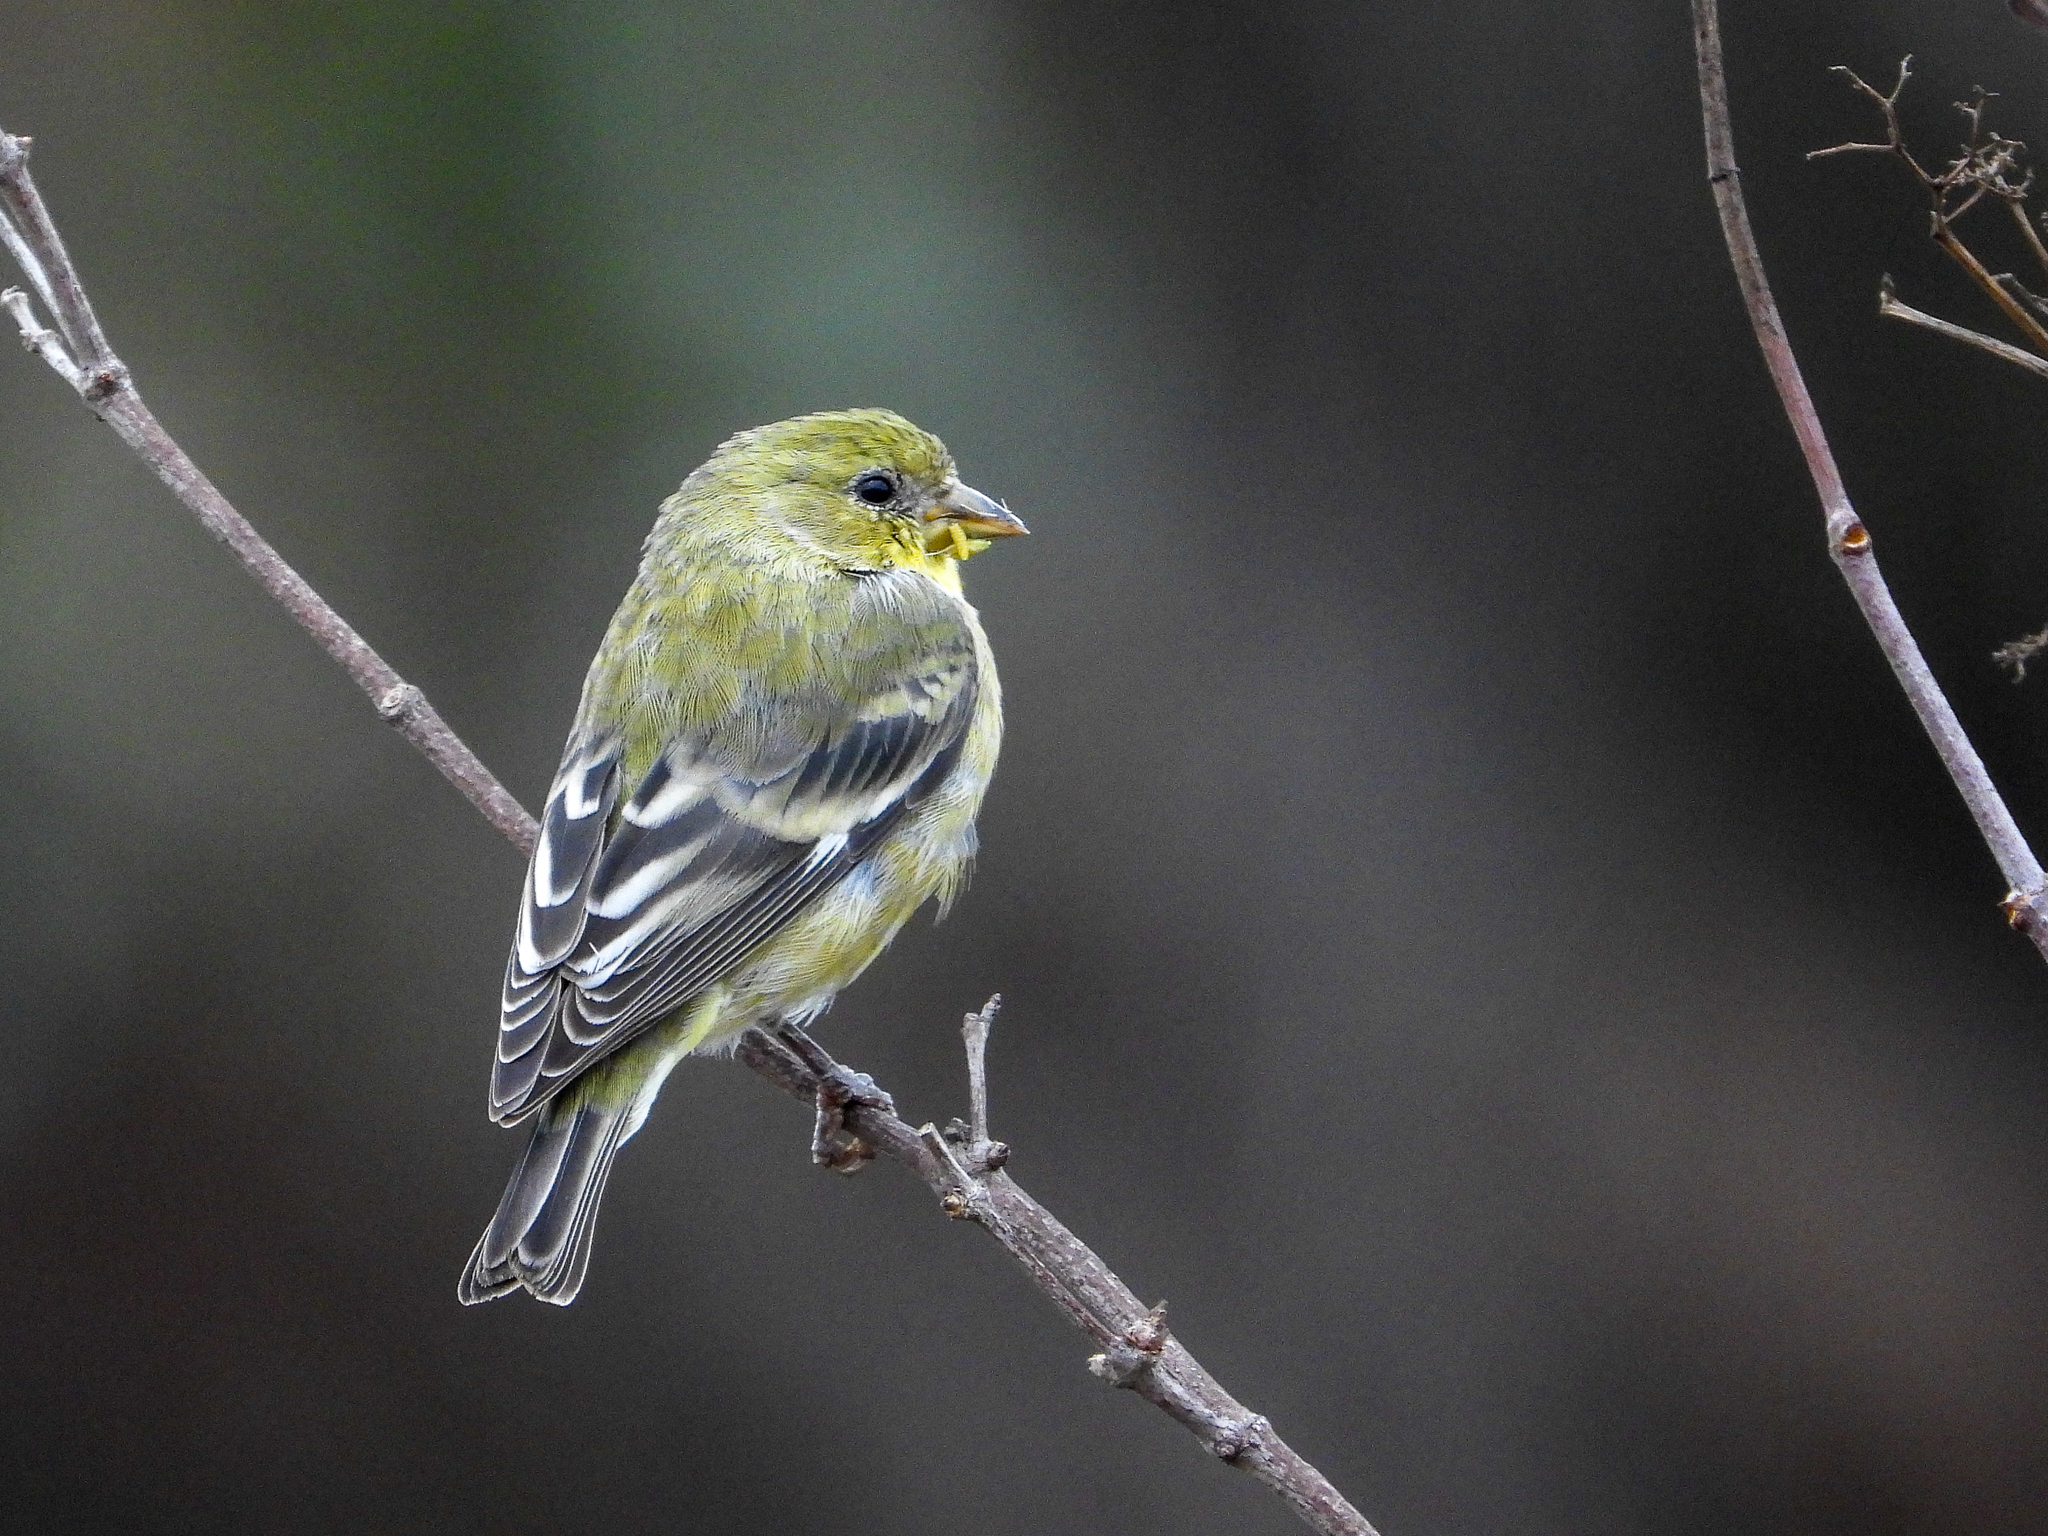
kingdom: Animalia
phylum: Chordata
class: Aves
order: Passeriformes
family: Fringillidae
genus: Spinus
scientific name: Spinus psaltria
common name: Lesser goldfinch
